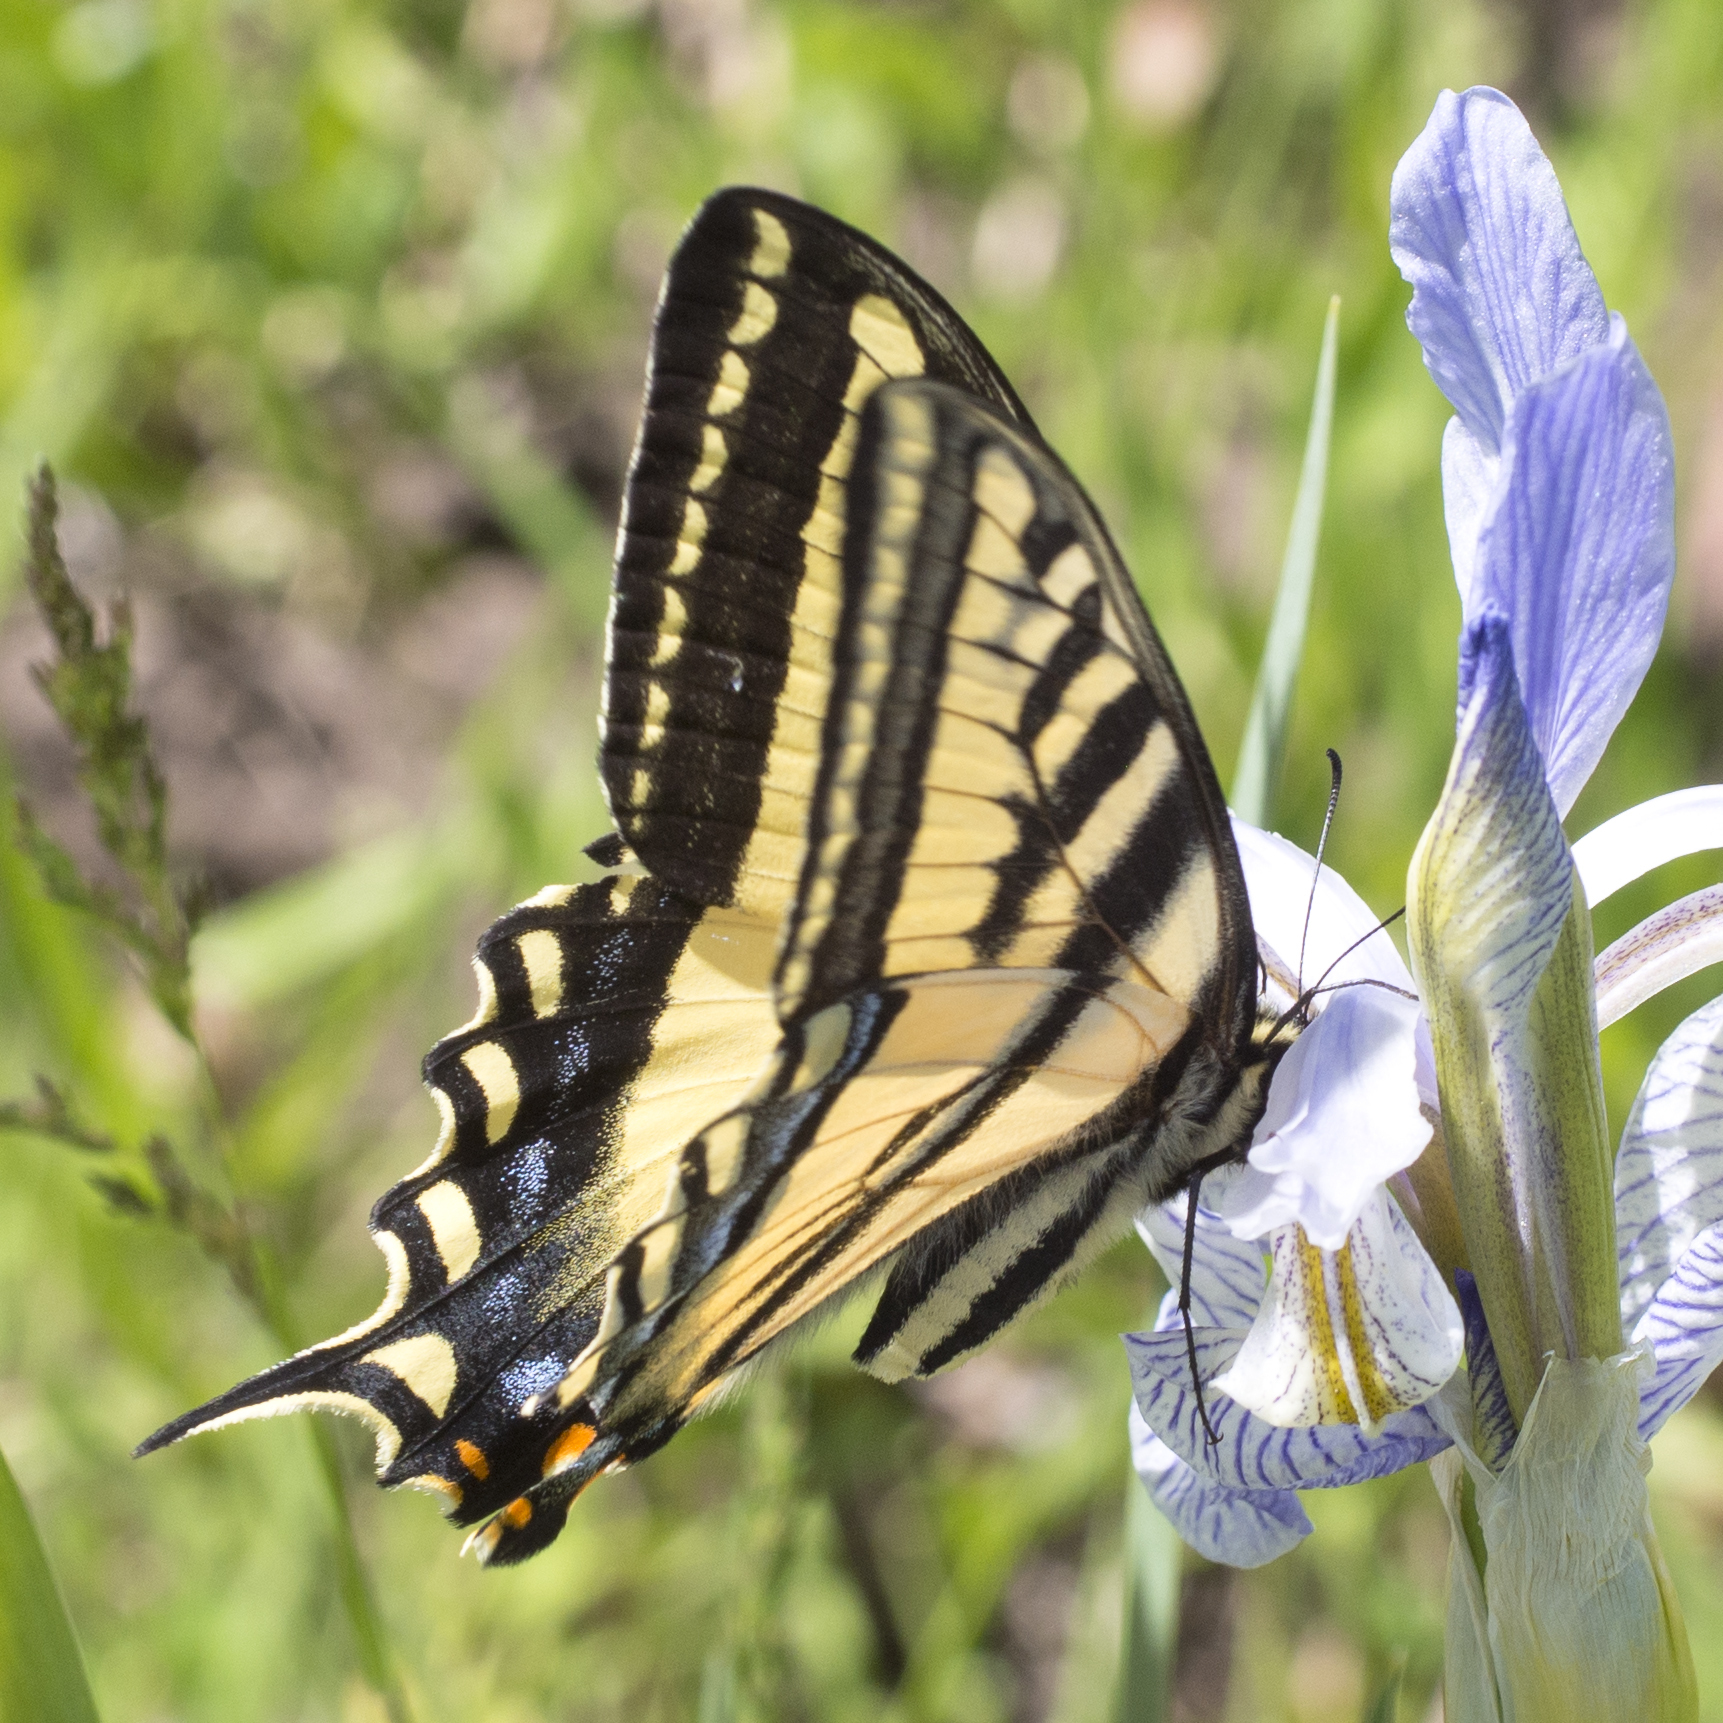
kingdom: Animalia
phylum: Arthropoda
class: Insecta
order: Lepidoptera
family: Papilionidae
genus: Papilio
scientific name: Papilio rutulus
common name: Western tiger swallowtail
